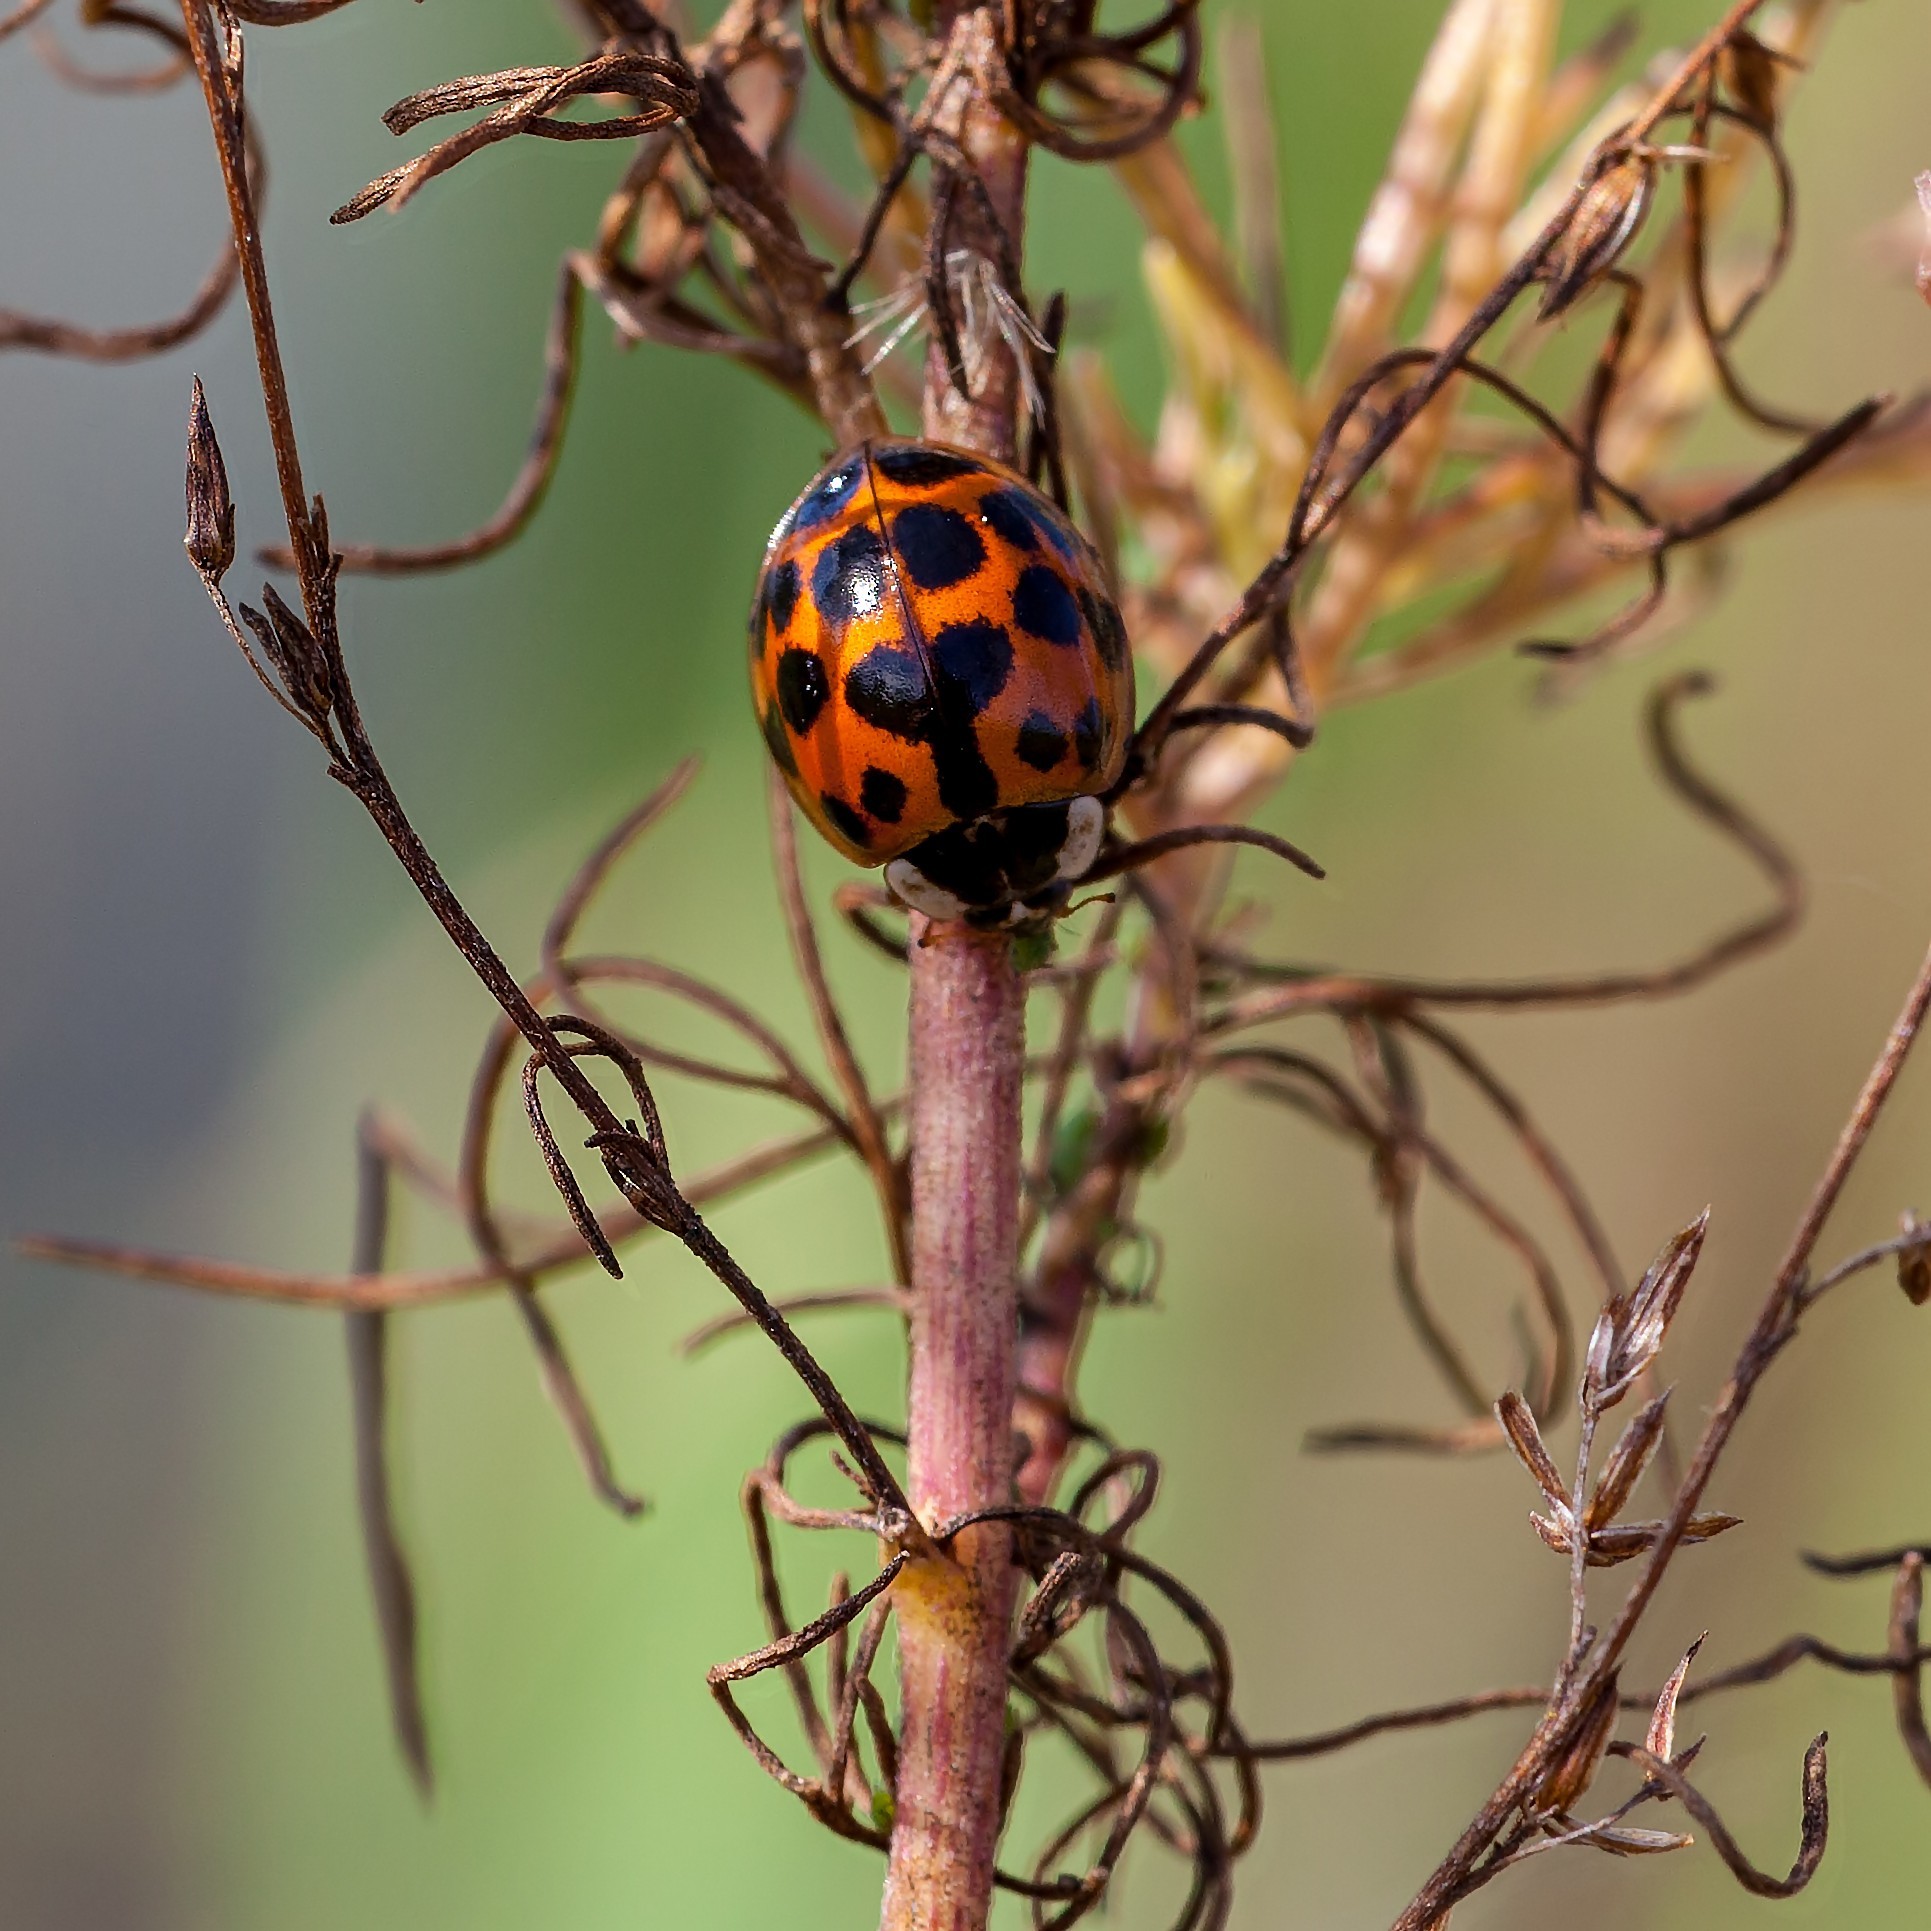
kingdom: Animalia
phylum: Arthropoda
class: Insecta
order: Coleoptera
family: Coccinellidae
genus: Harmonia
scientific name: Harmonia axyridis
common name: Harlequin ladybird
